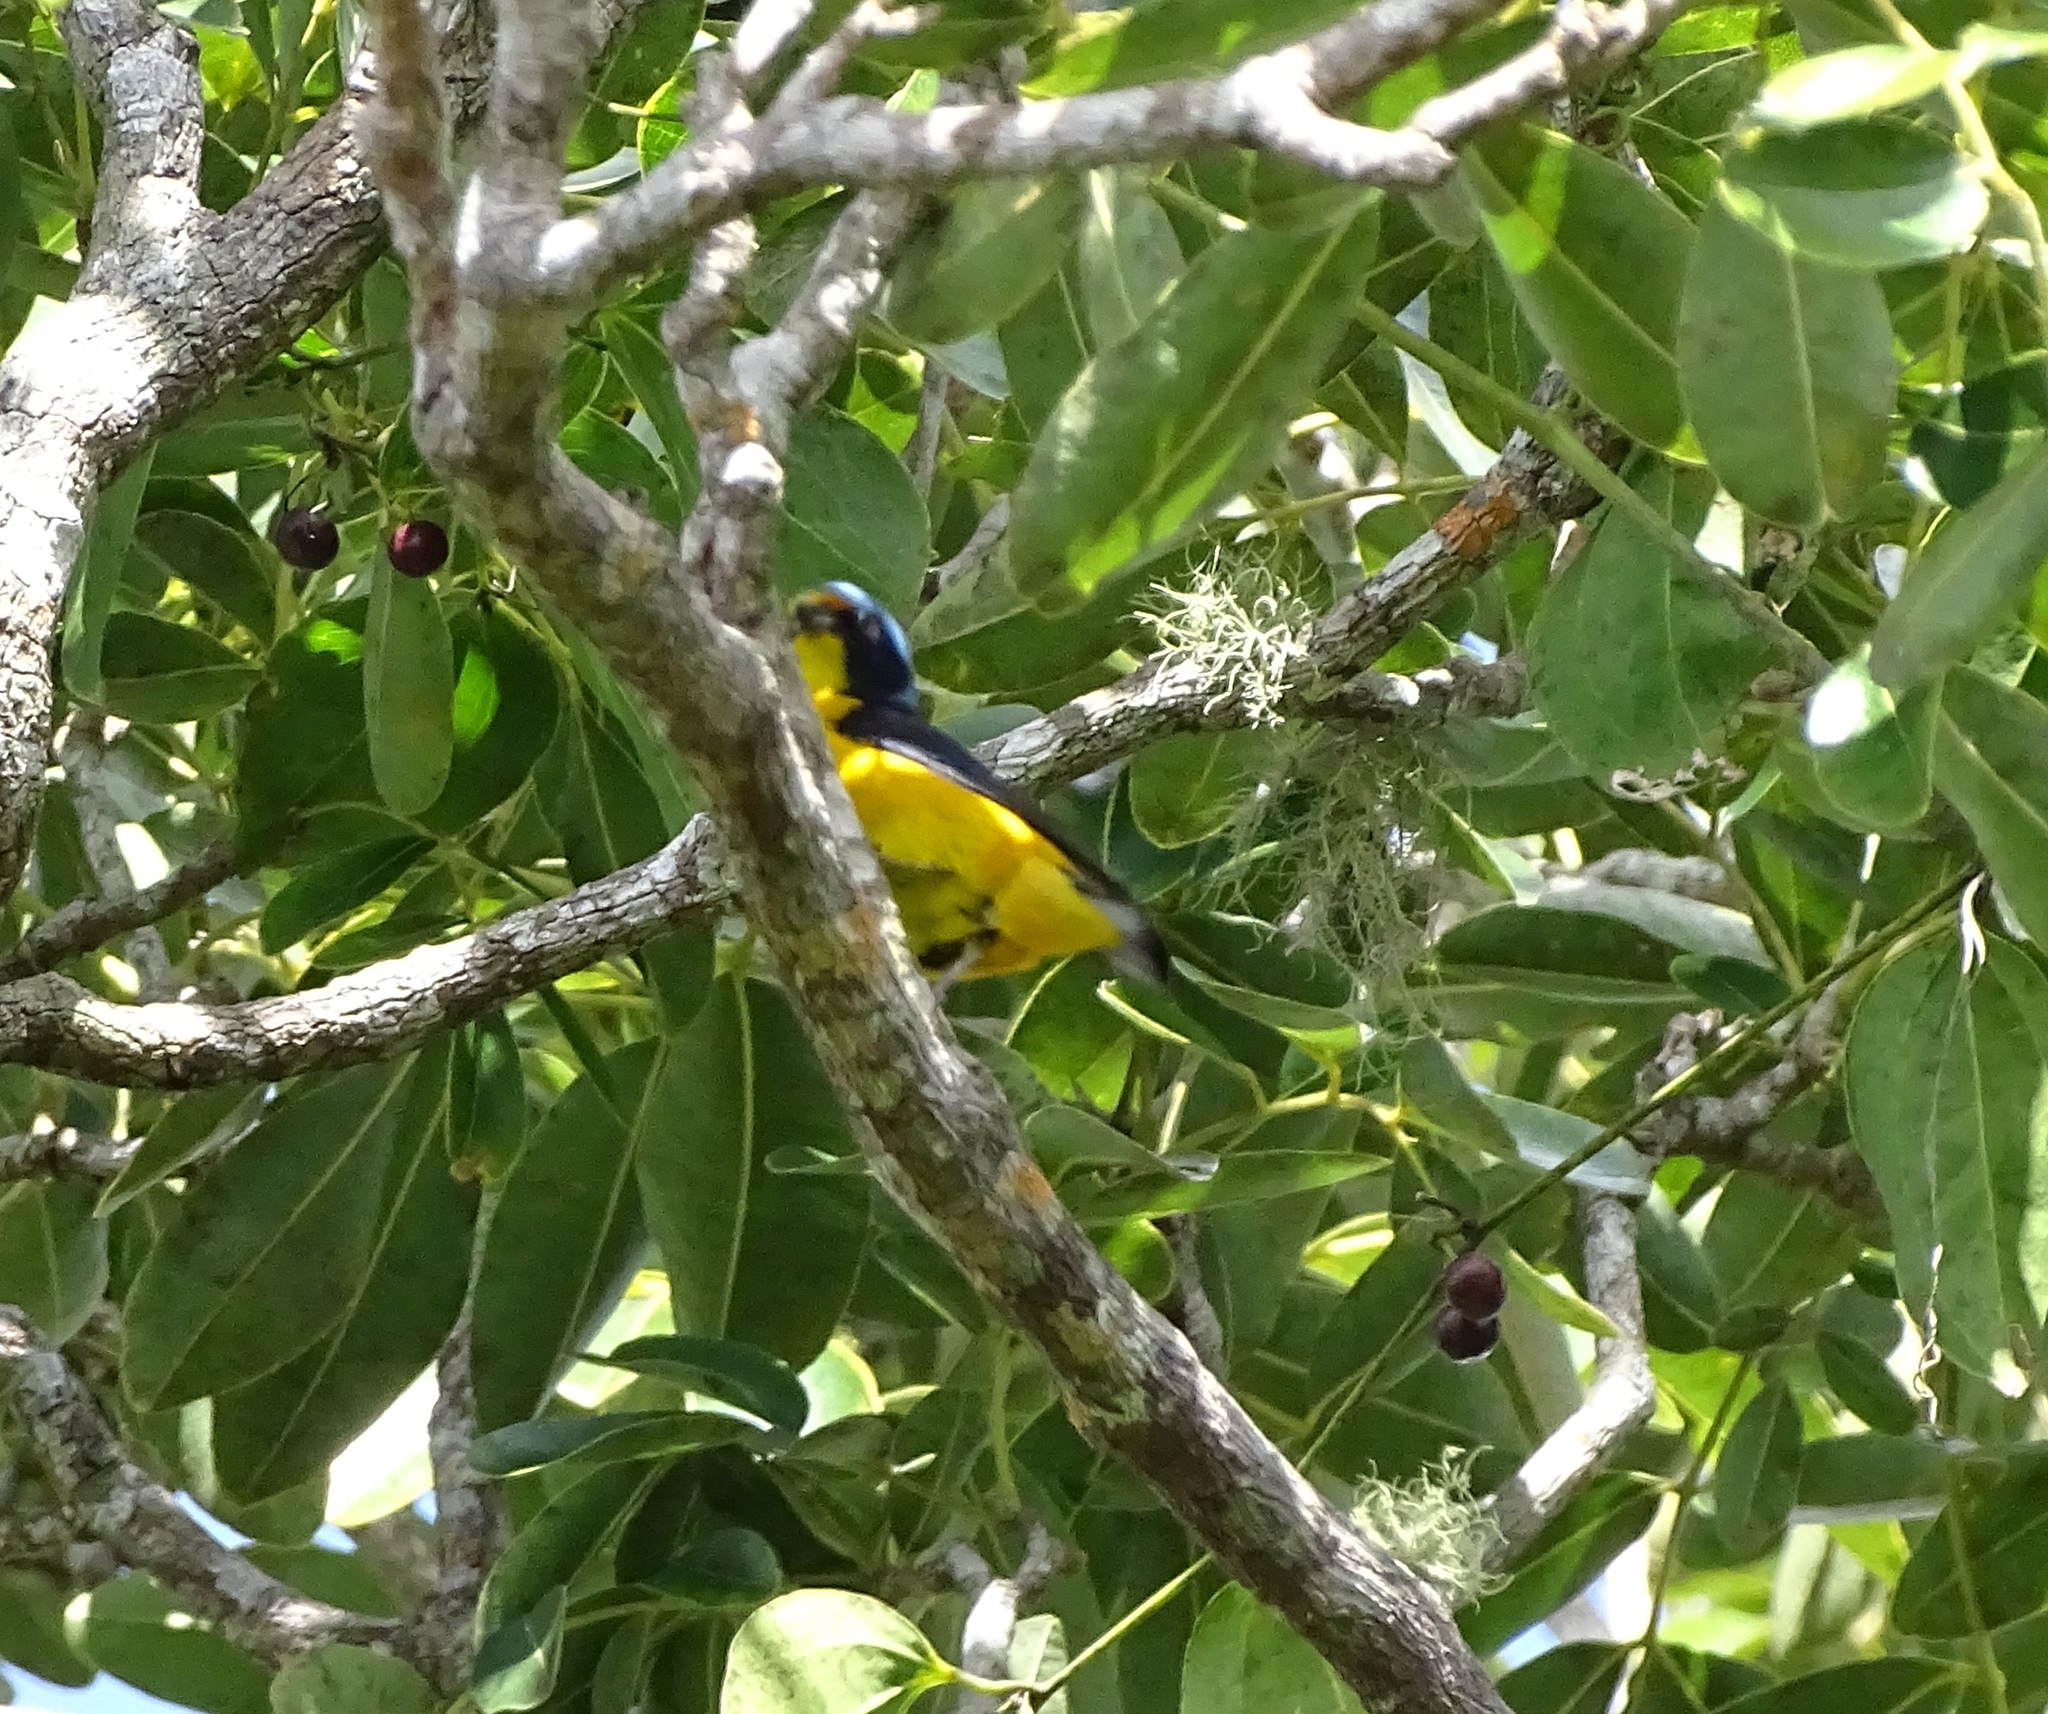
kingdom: Animalia
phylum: Chordata
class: Aves
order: Passeriformes
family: Fringillidae
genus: Euphonia
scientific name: Euphonia musica
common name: Antillean euphonia
